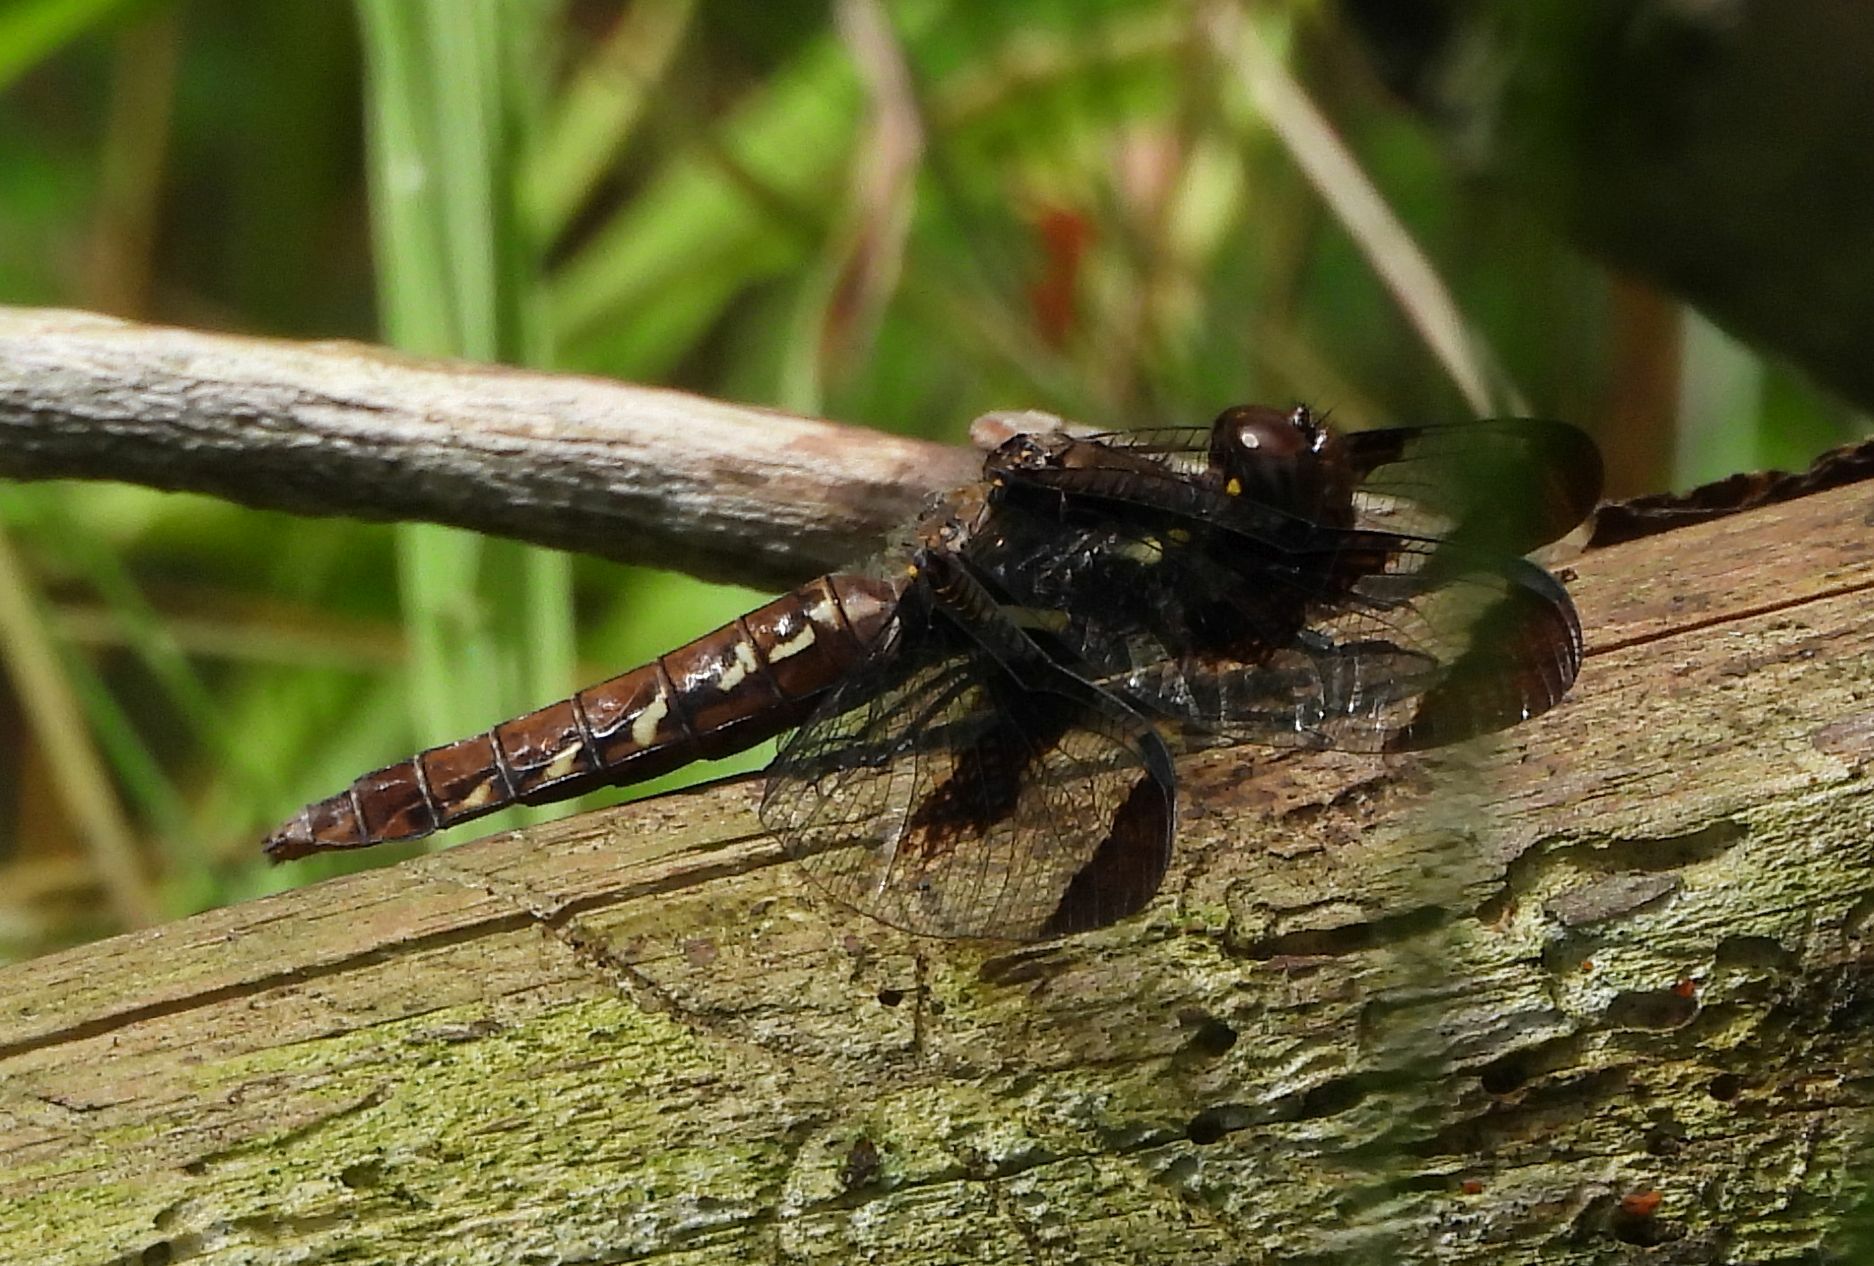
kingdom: Animalia
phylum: Arthropoda
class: Insecta
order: Odonata
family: Libellulidae
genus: Plathemis
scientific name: Plathemis lydia
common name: Common whitetail
